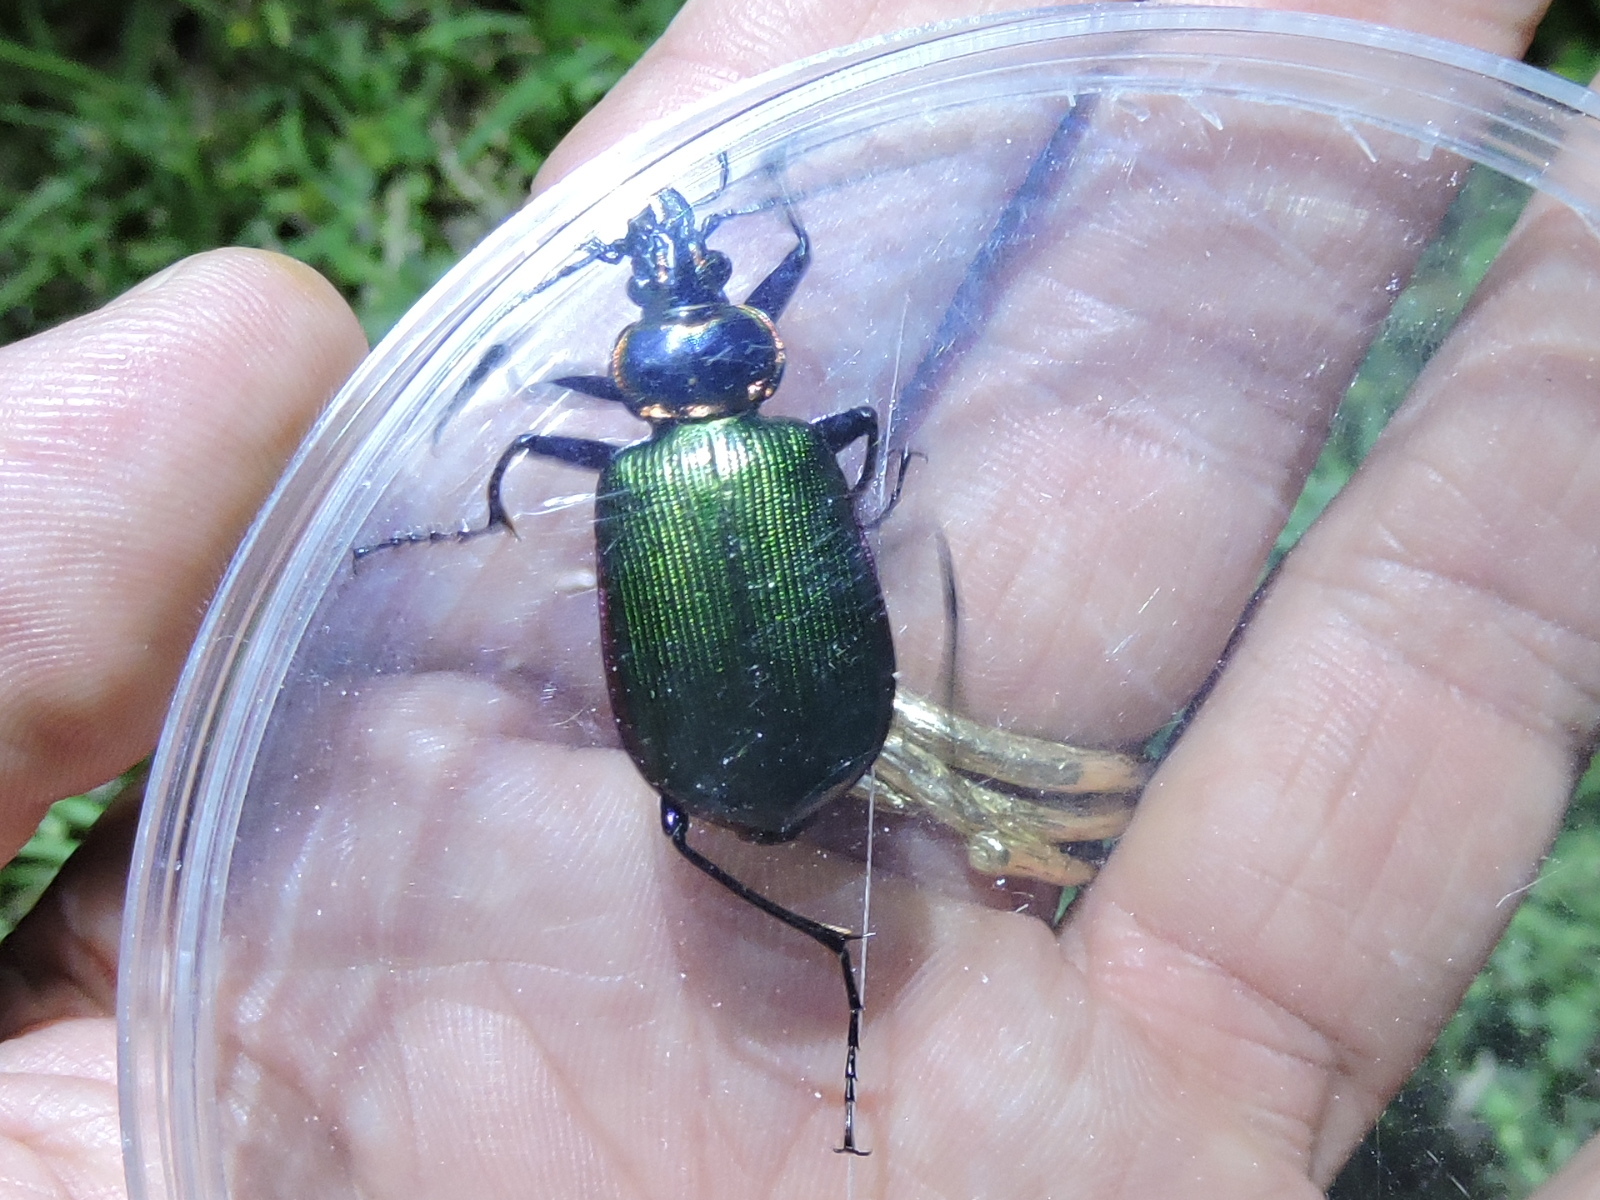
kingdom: Animalia
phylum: Arthropoda
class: Insecta
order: Coleoptera
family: Carabidae
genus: Calosoma
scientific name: Calosoma scrutator
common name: Fiery searcher beetle
